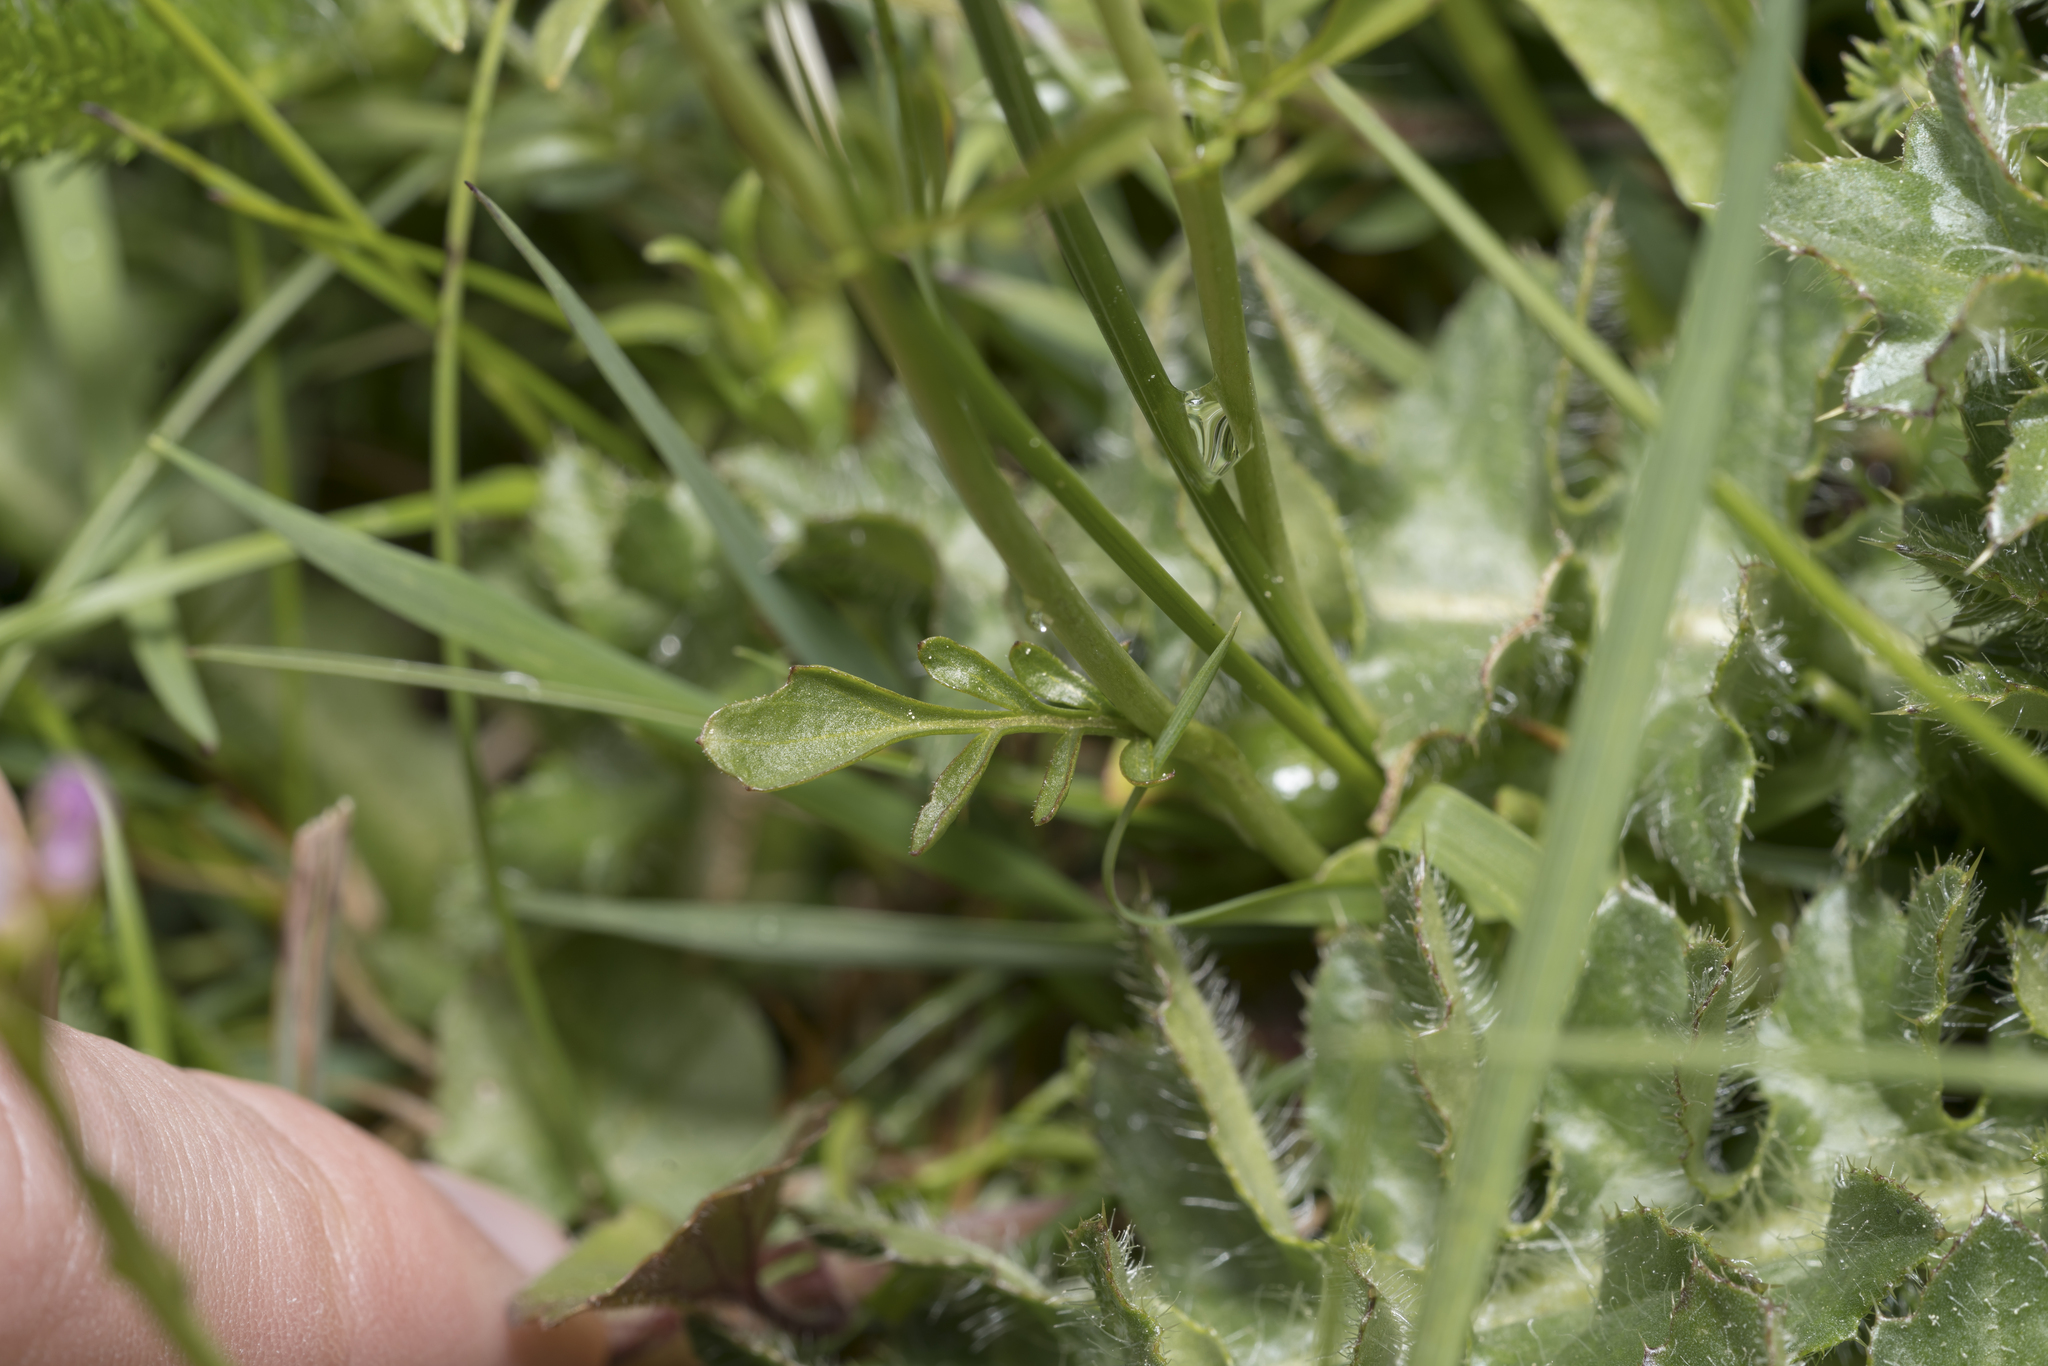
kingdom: Plantae
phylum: Tracheophyta
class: Magnoliopsida
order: Brassicales
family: Brassicaceae
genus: Cardamine
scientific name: Cardamine pratensis
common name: Cuckoo flower
